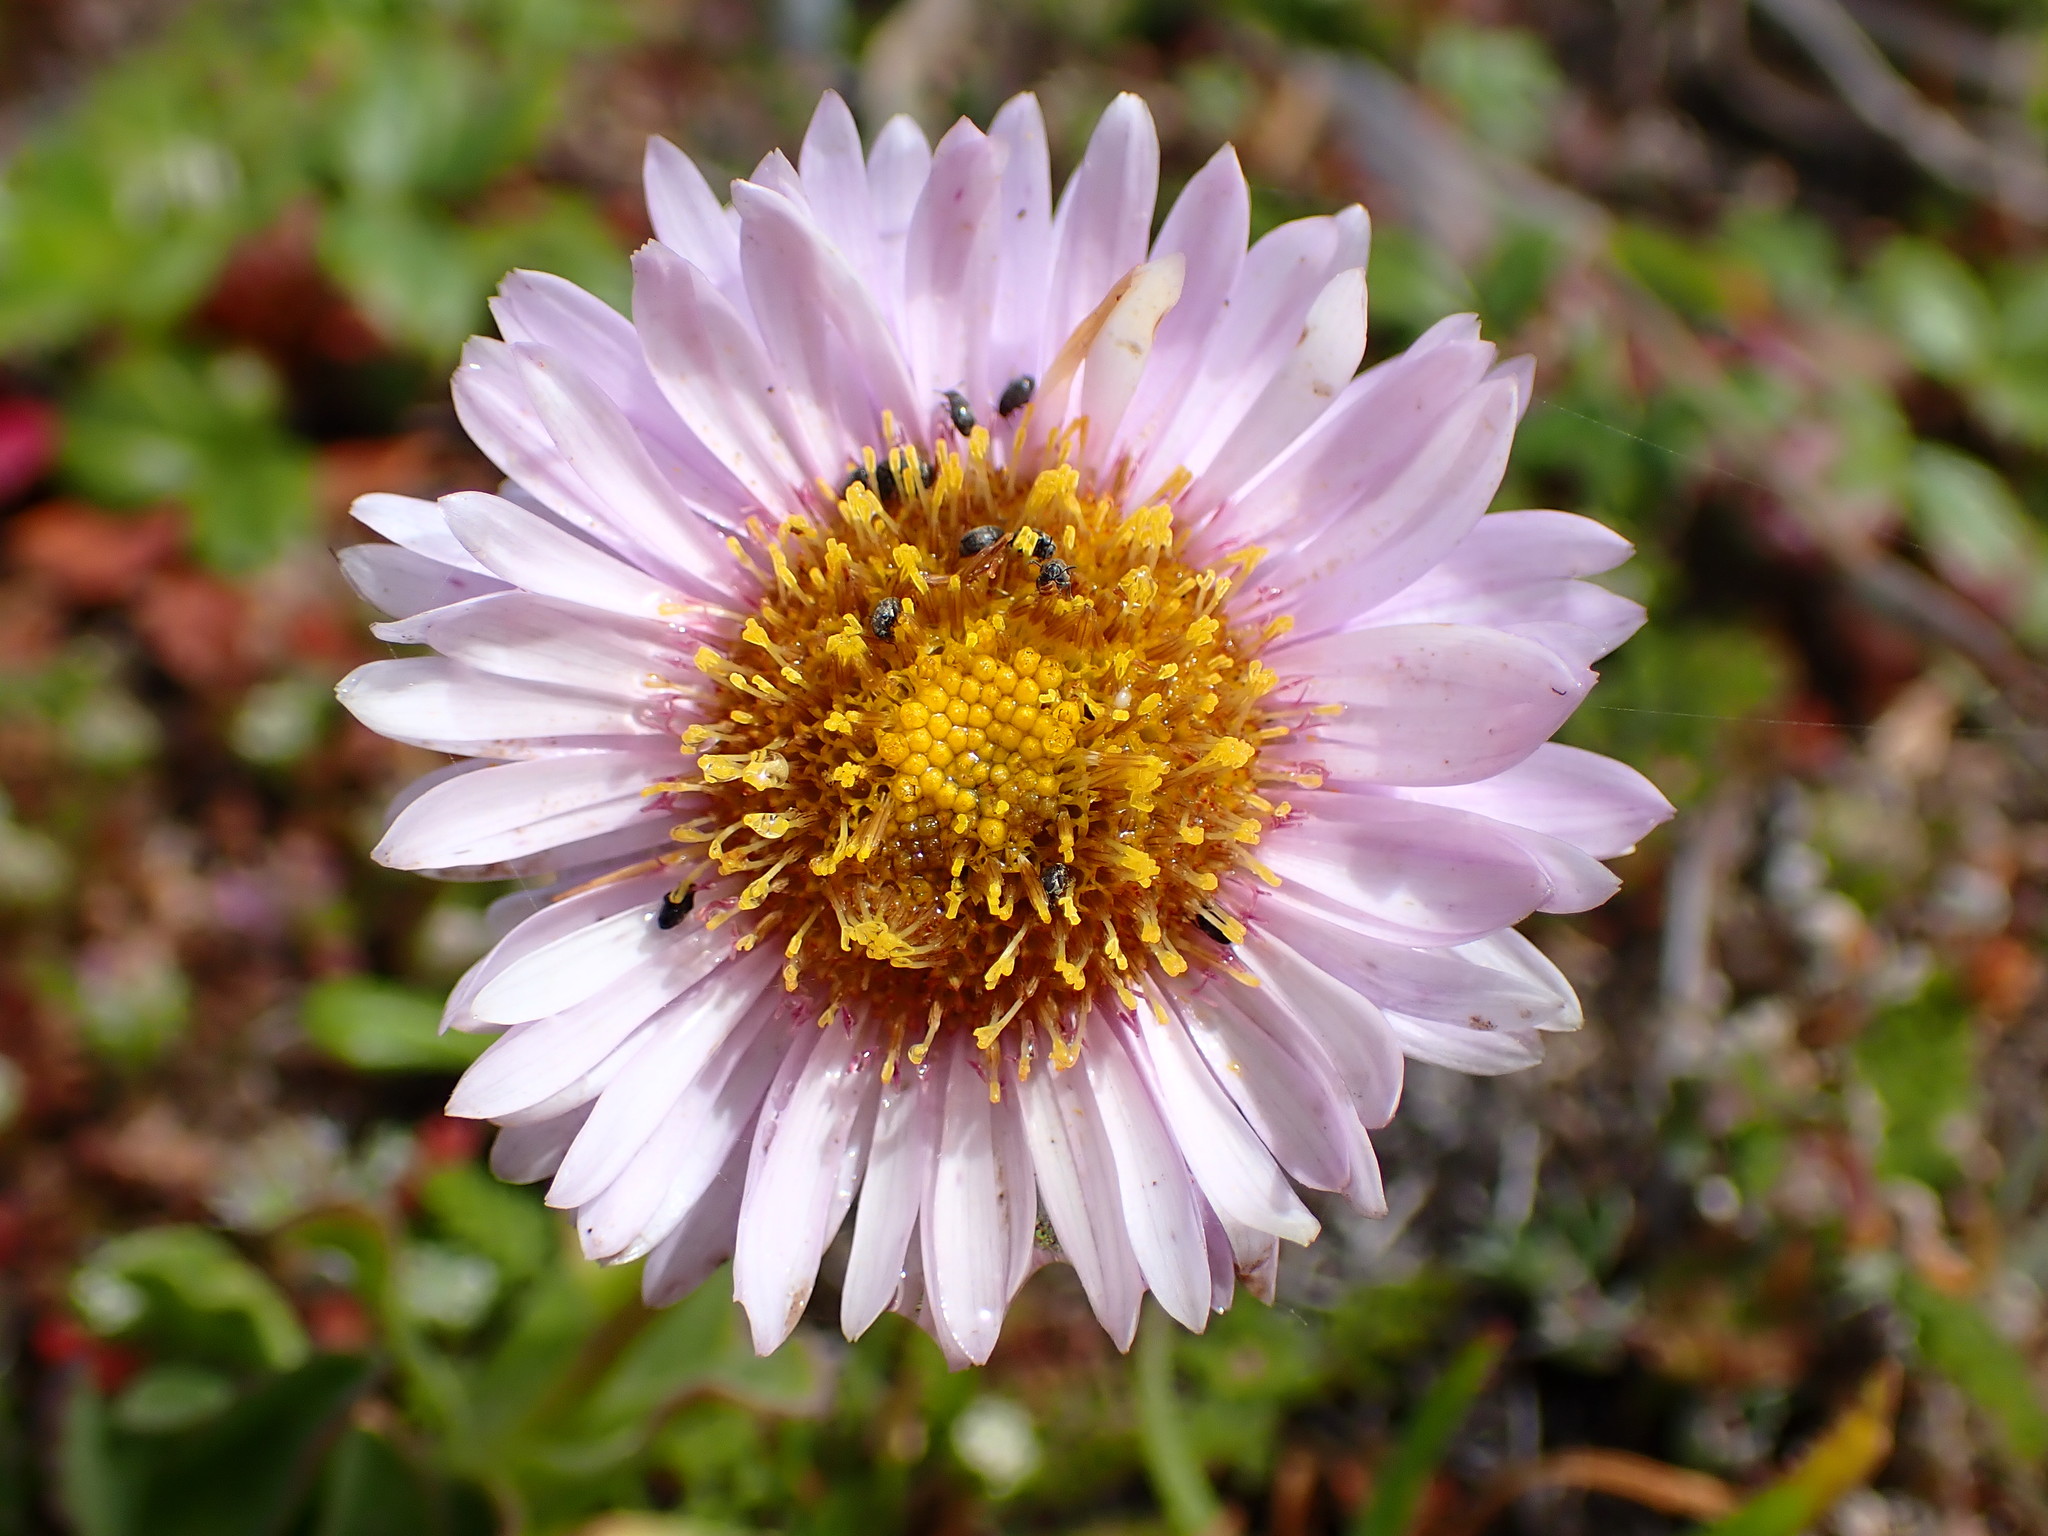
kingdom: Plantae
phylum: Tracheophyta
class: Magnoliopsida
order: Asterales
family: Asteraceae
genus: Erigeron
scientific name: Erigeron glaucus
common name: Seaside daisy
